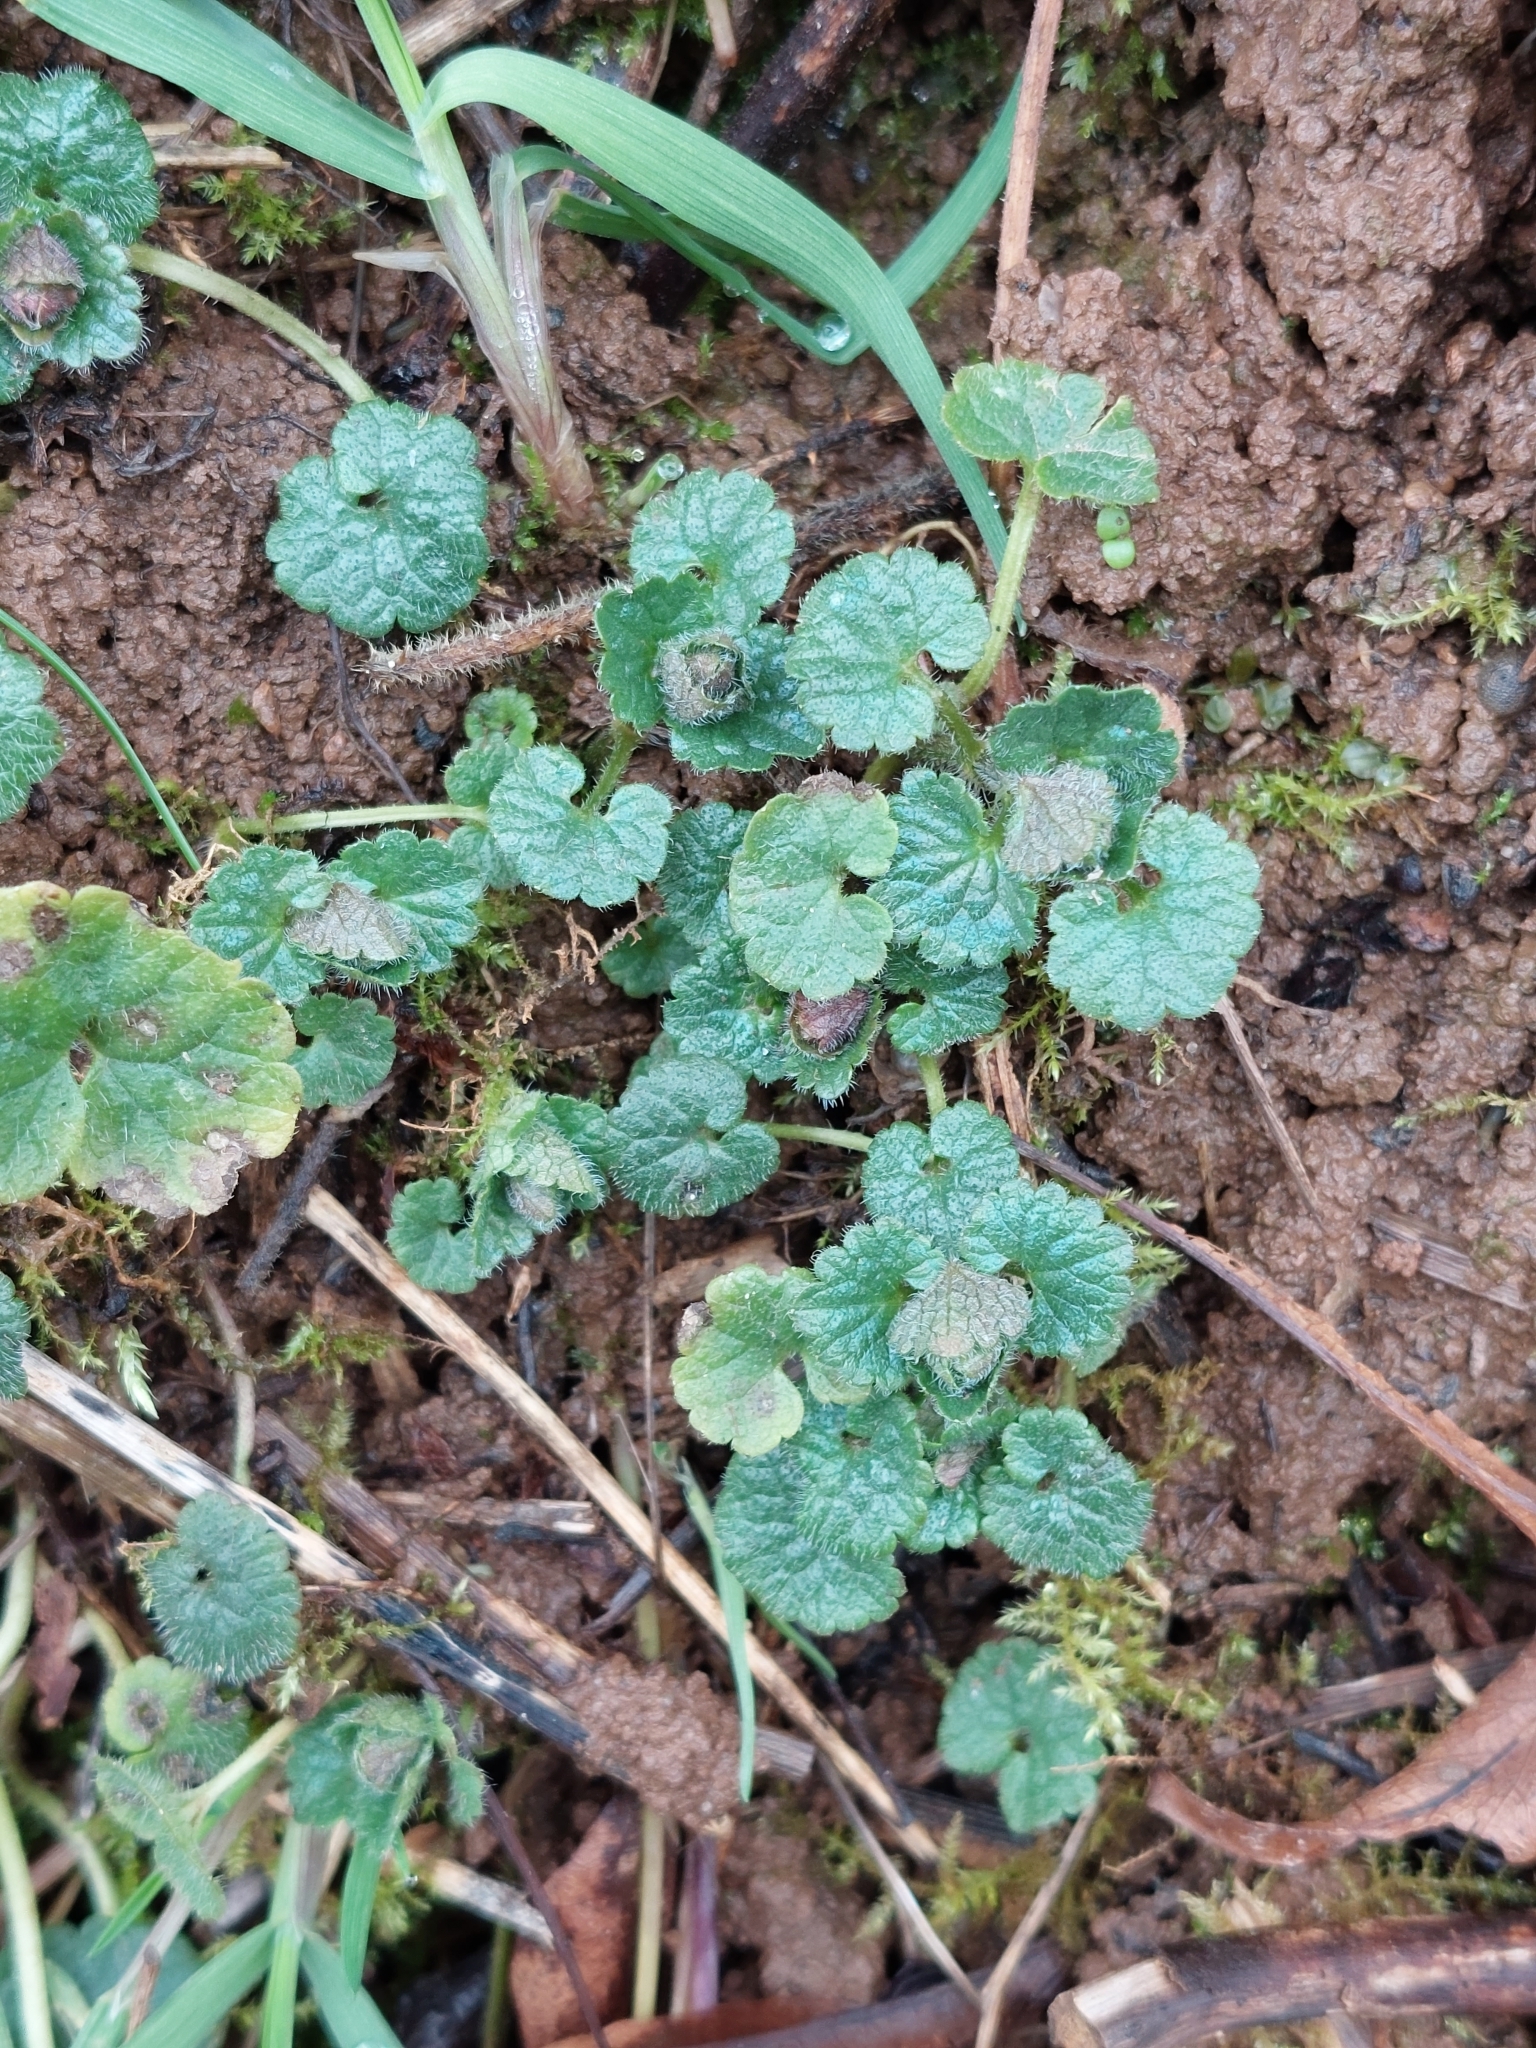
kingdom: Plantae
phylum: Tracheophyta
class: Magnoliopsida
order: Lamiales
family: Lamiaceae
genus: Glechoma
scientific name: Glechoma hederacea
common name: Ground ivy
